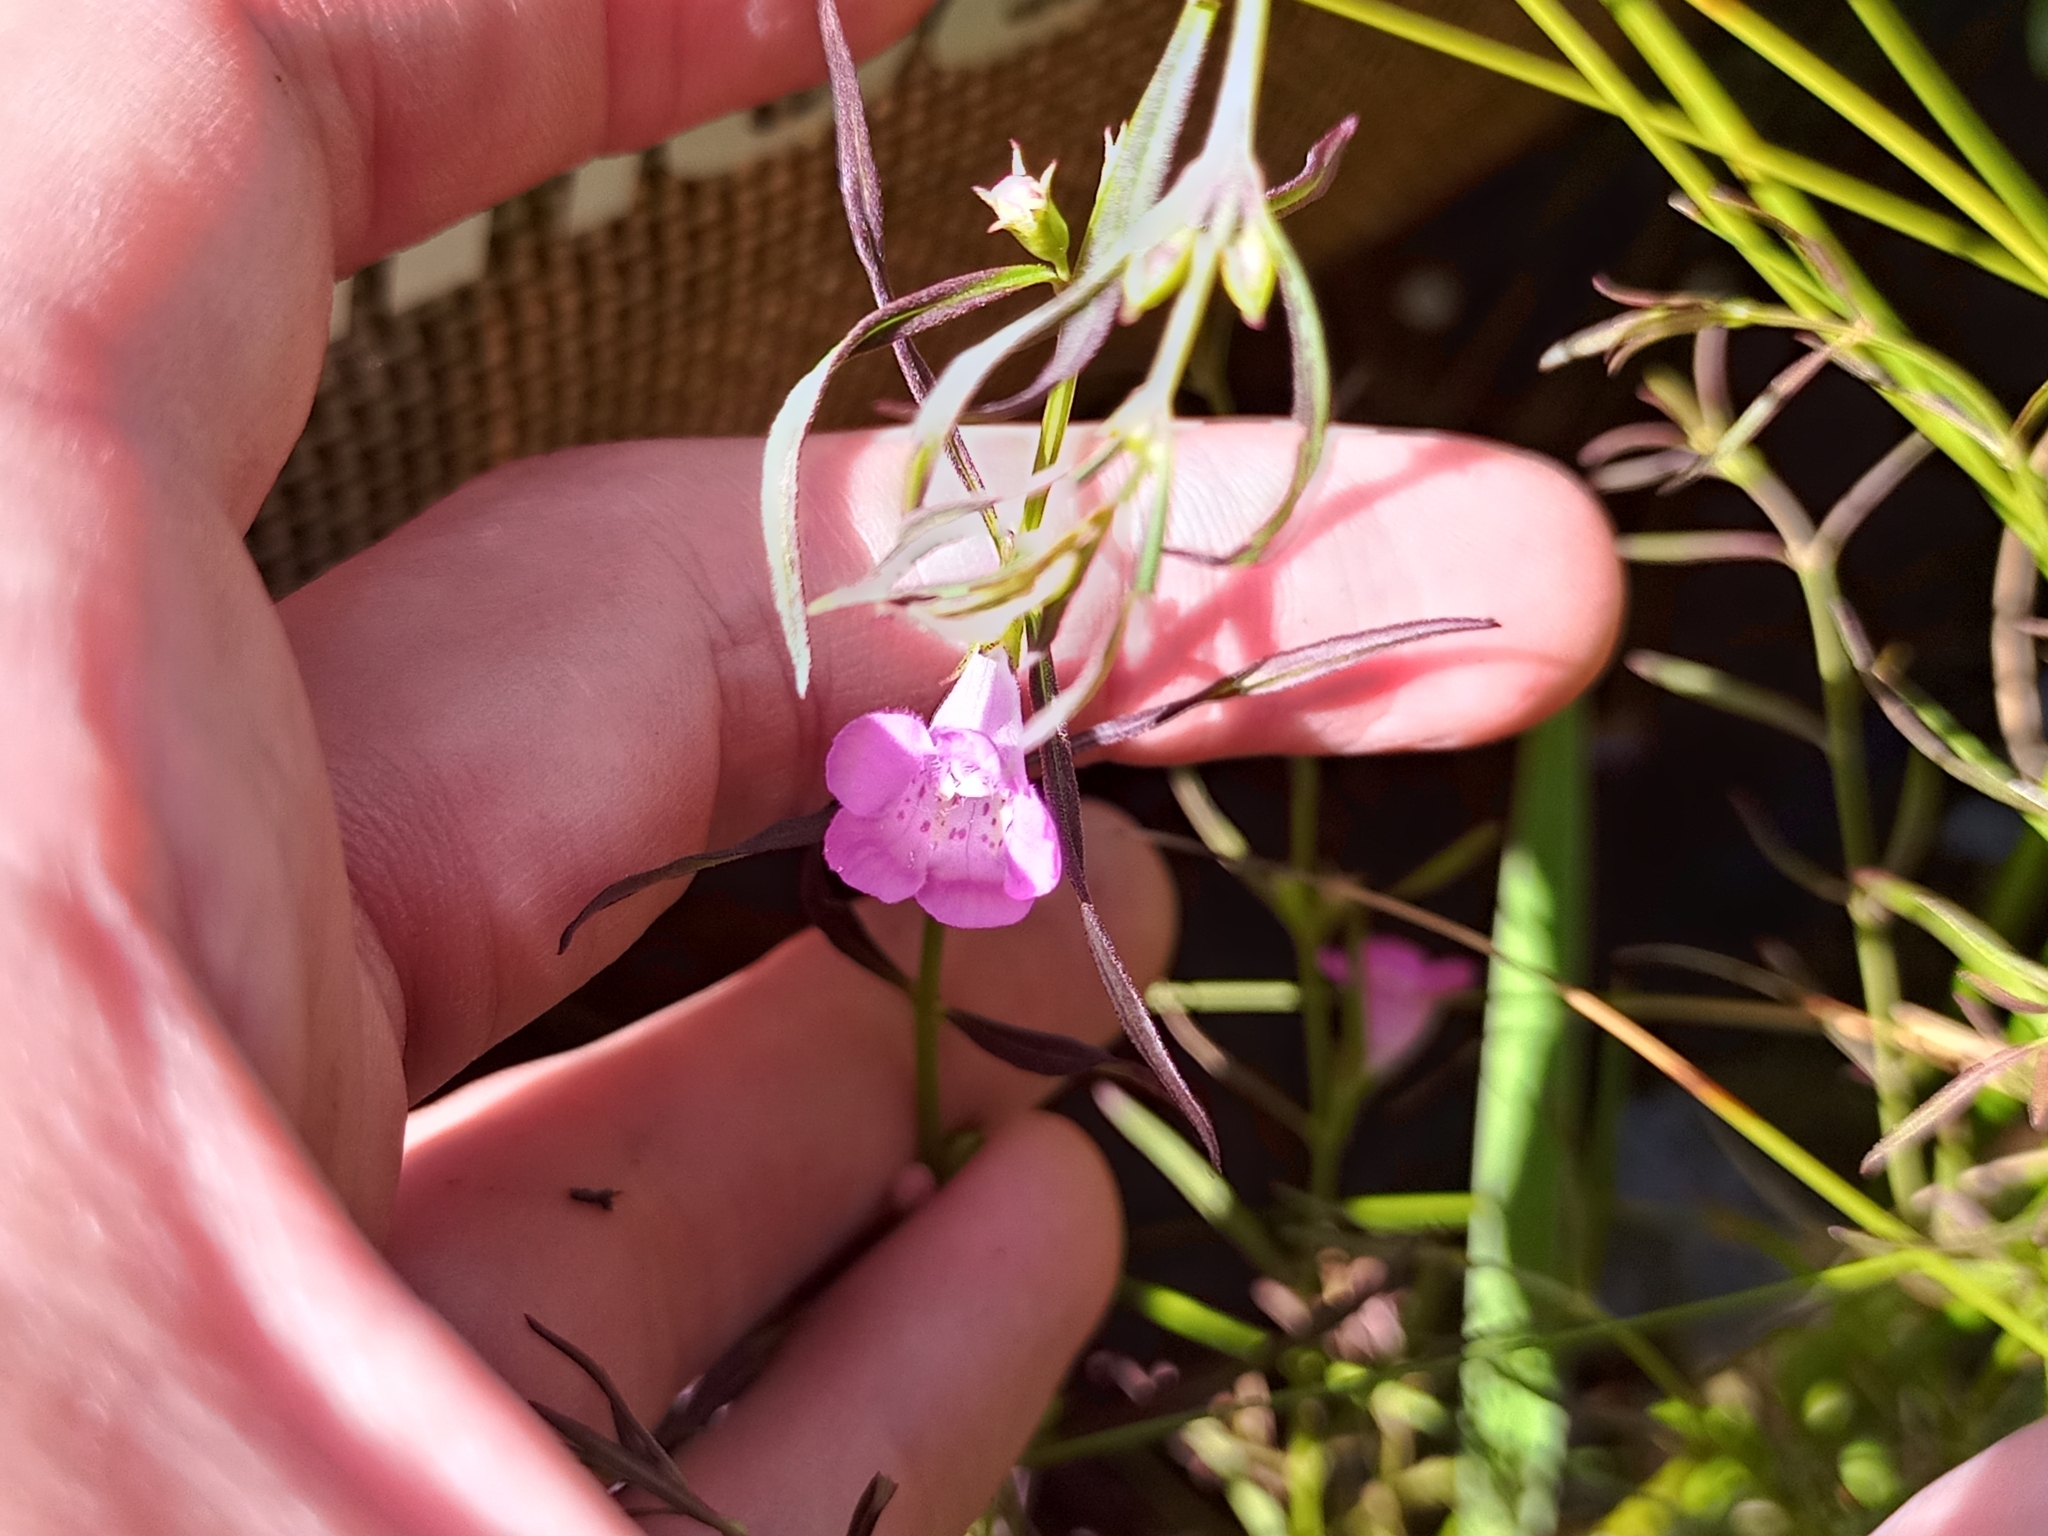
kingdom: Plantae
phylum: Tracheophyta
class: Magnoliopsida
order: Lamiales
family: Orobanchaceae
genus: Agalinis
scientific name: Agalinis purpurea
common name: Purple false foxglove
